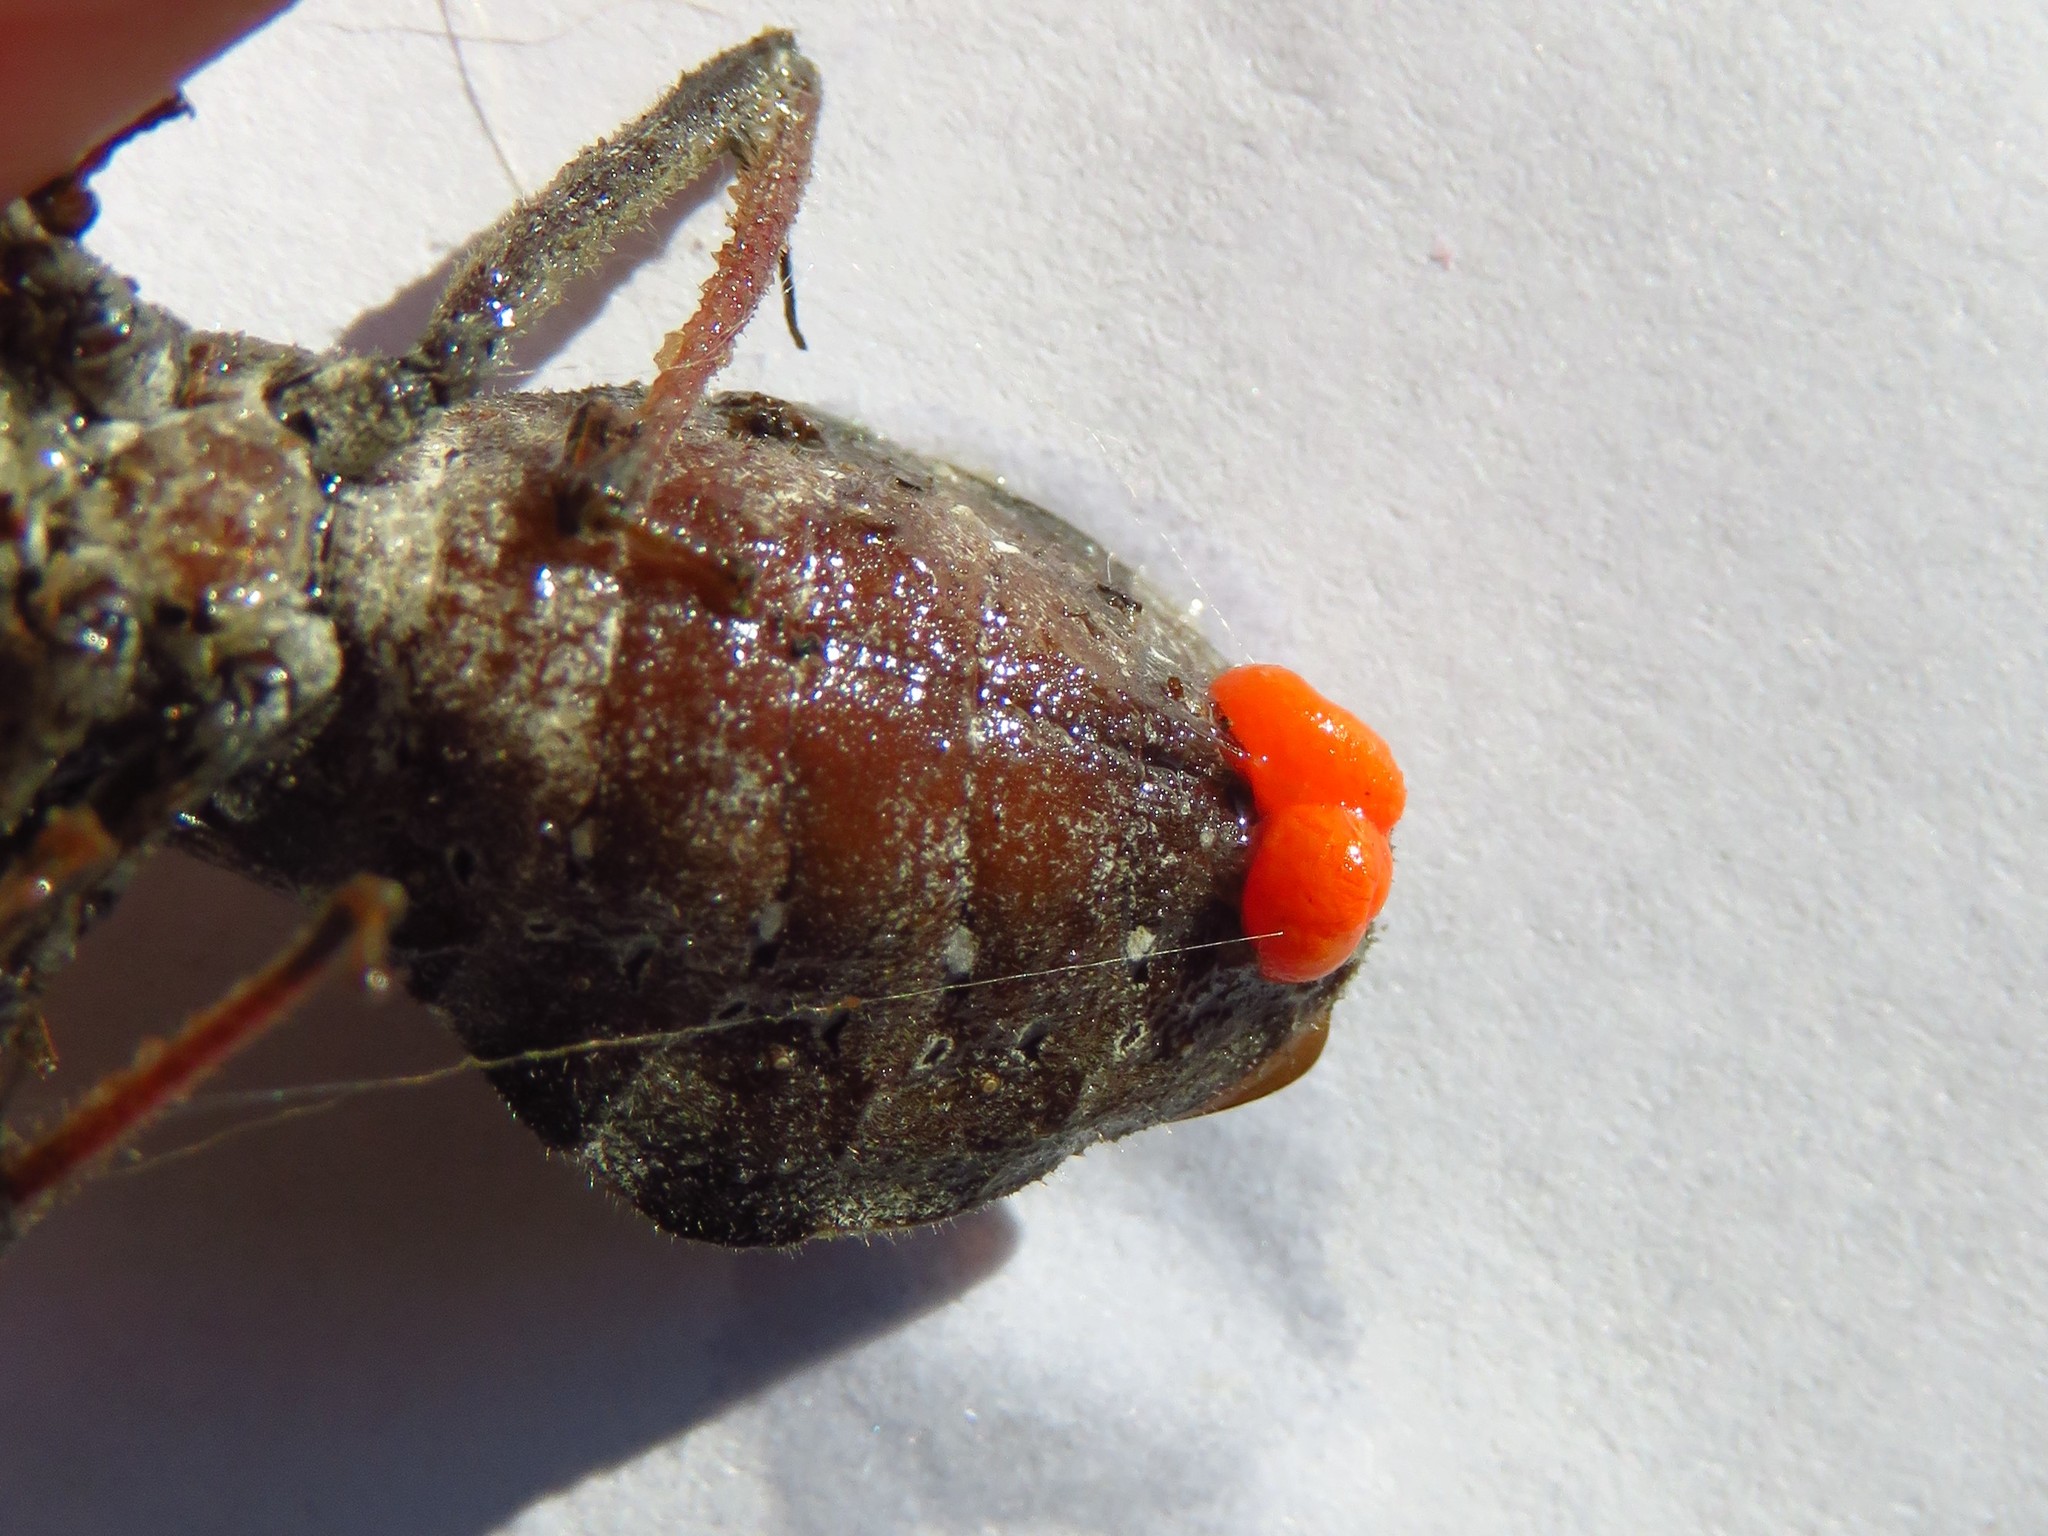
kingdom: Animalia
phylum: Arthropoda
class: Insecta
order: Hemiptera
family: Reduviidae
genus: Arilus
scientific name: Arilus cristatus
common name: North american wheel bug
